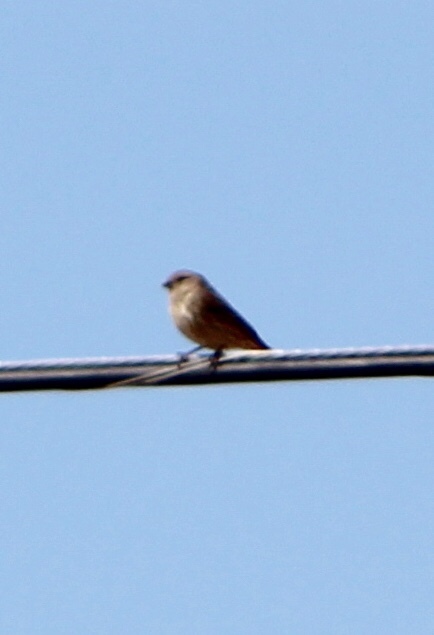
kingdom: Animalia
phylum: Chordata
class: Aves
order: Passeriformes
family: Fringillidae
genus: Haemorhous
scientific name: Haemorhous mexicanus
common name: House finch
